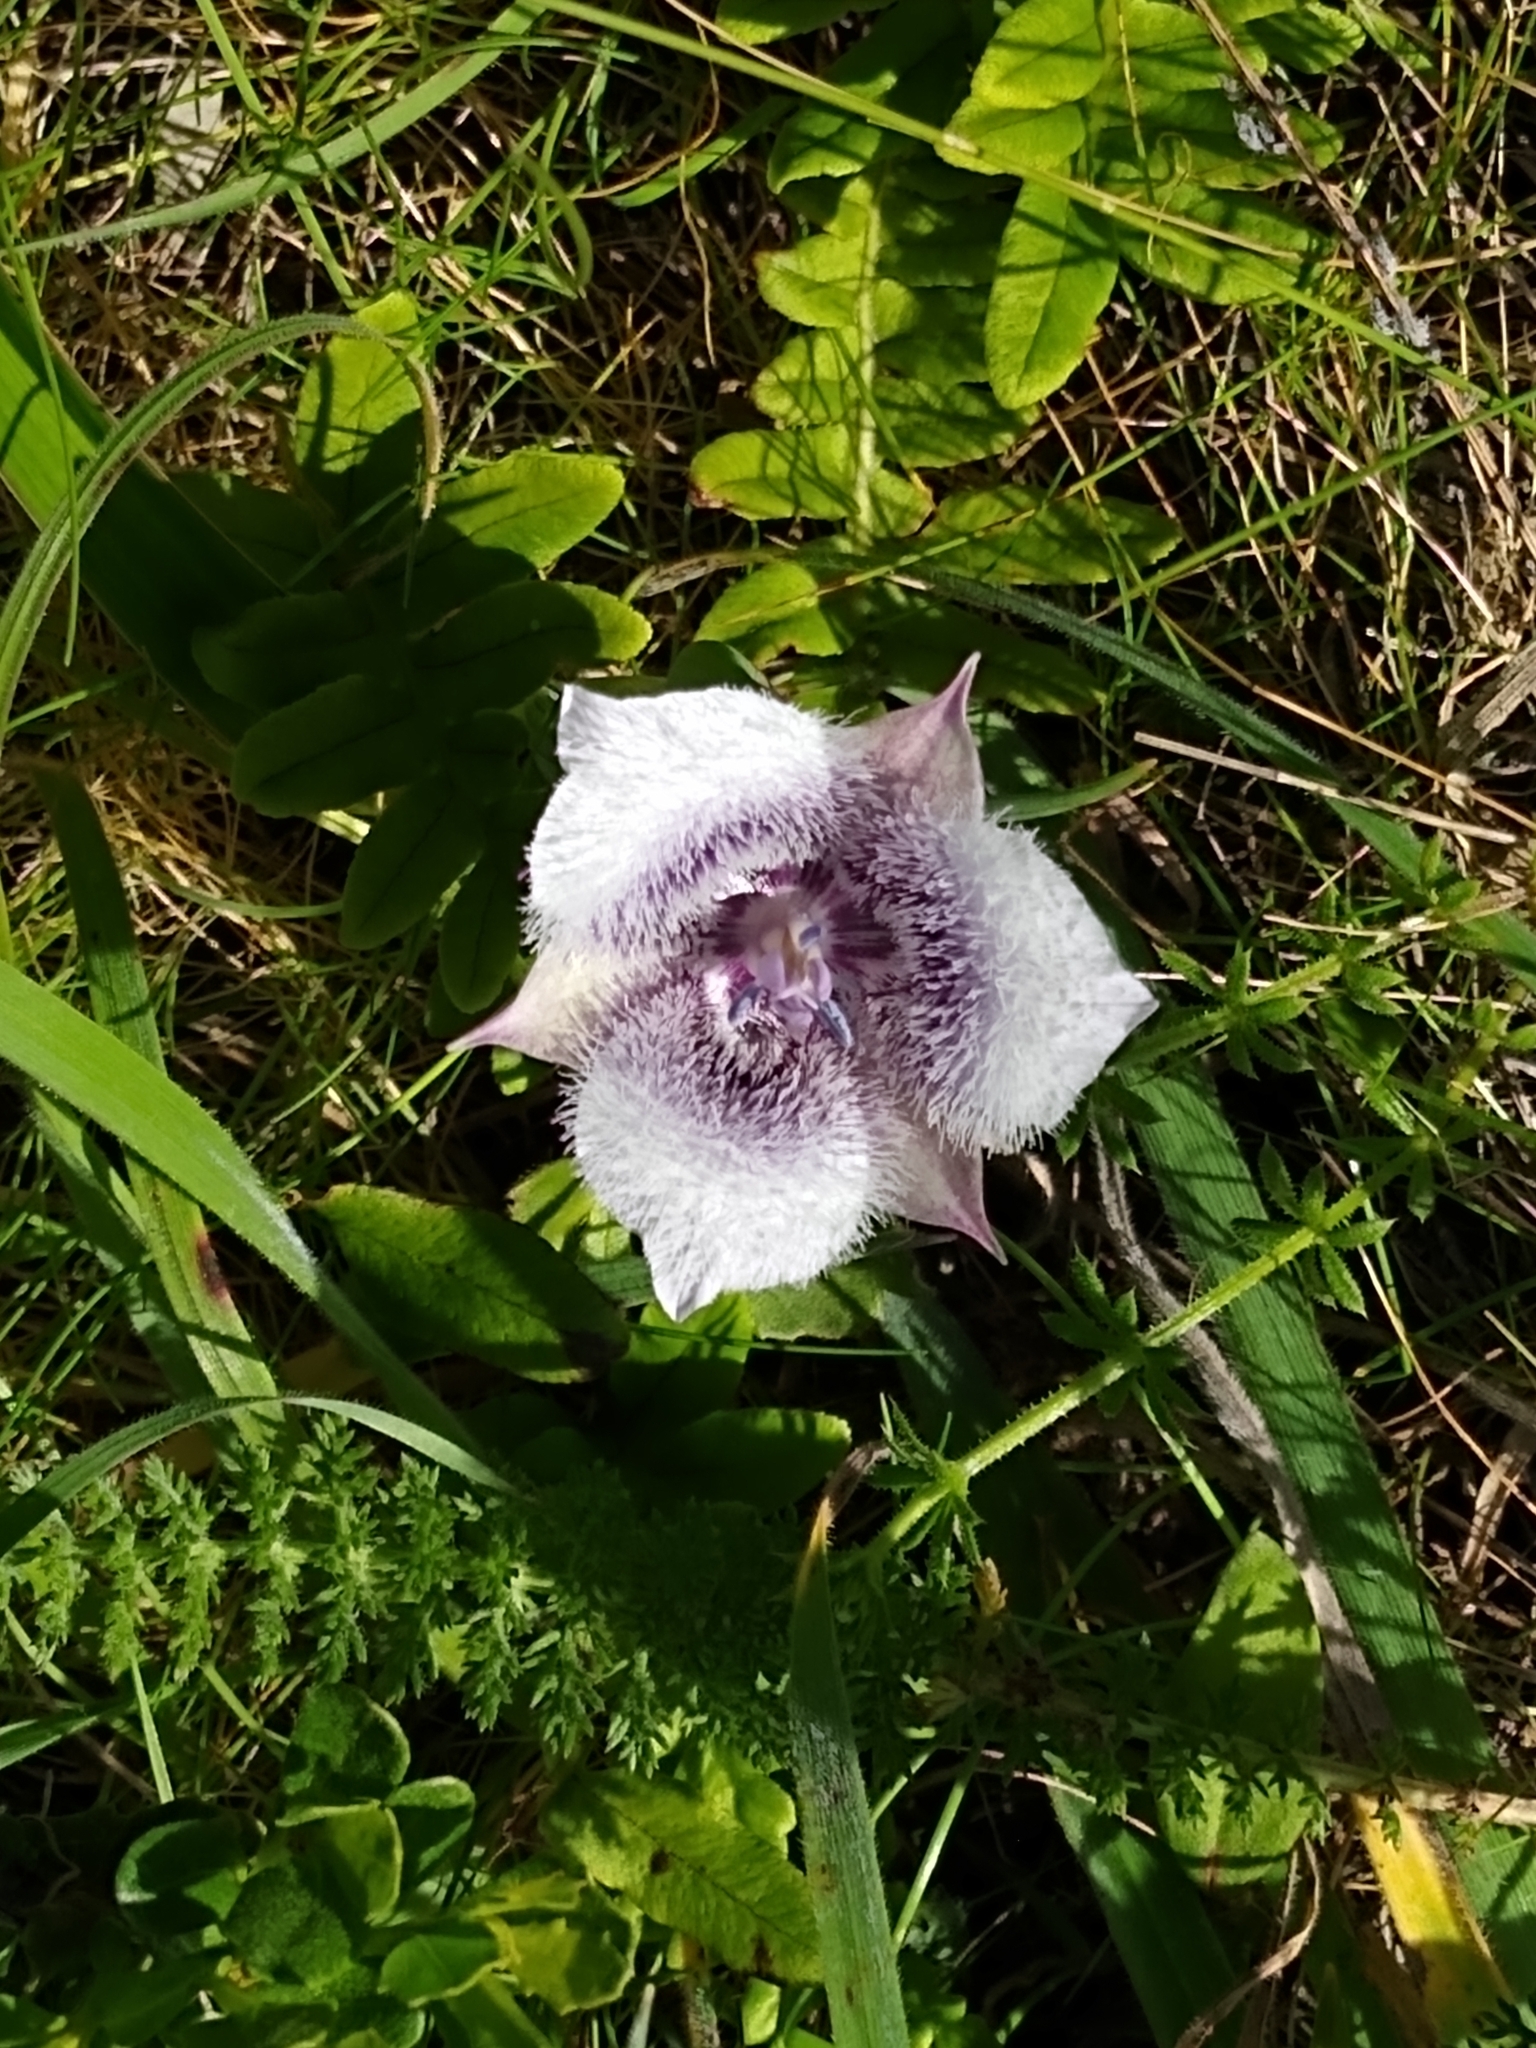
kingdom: Plantae
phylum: Tracheophyta
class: Liliopsida
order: Liliales
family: Liliaceae
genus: Calochortus
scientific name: Calochortus tolmiei
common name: Pussy-ears
